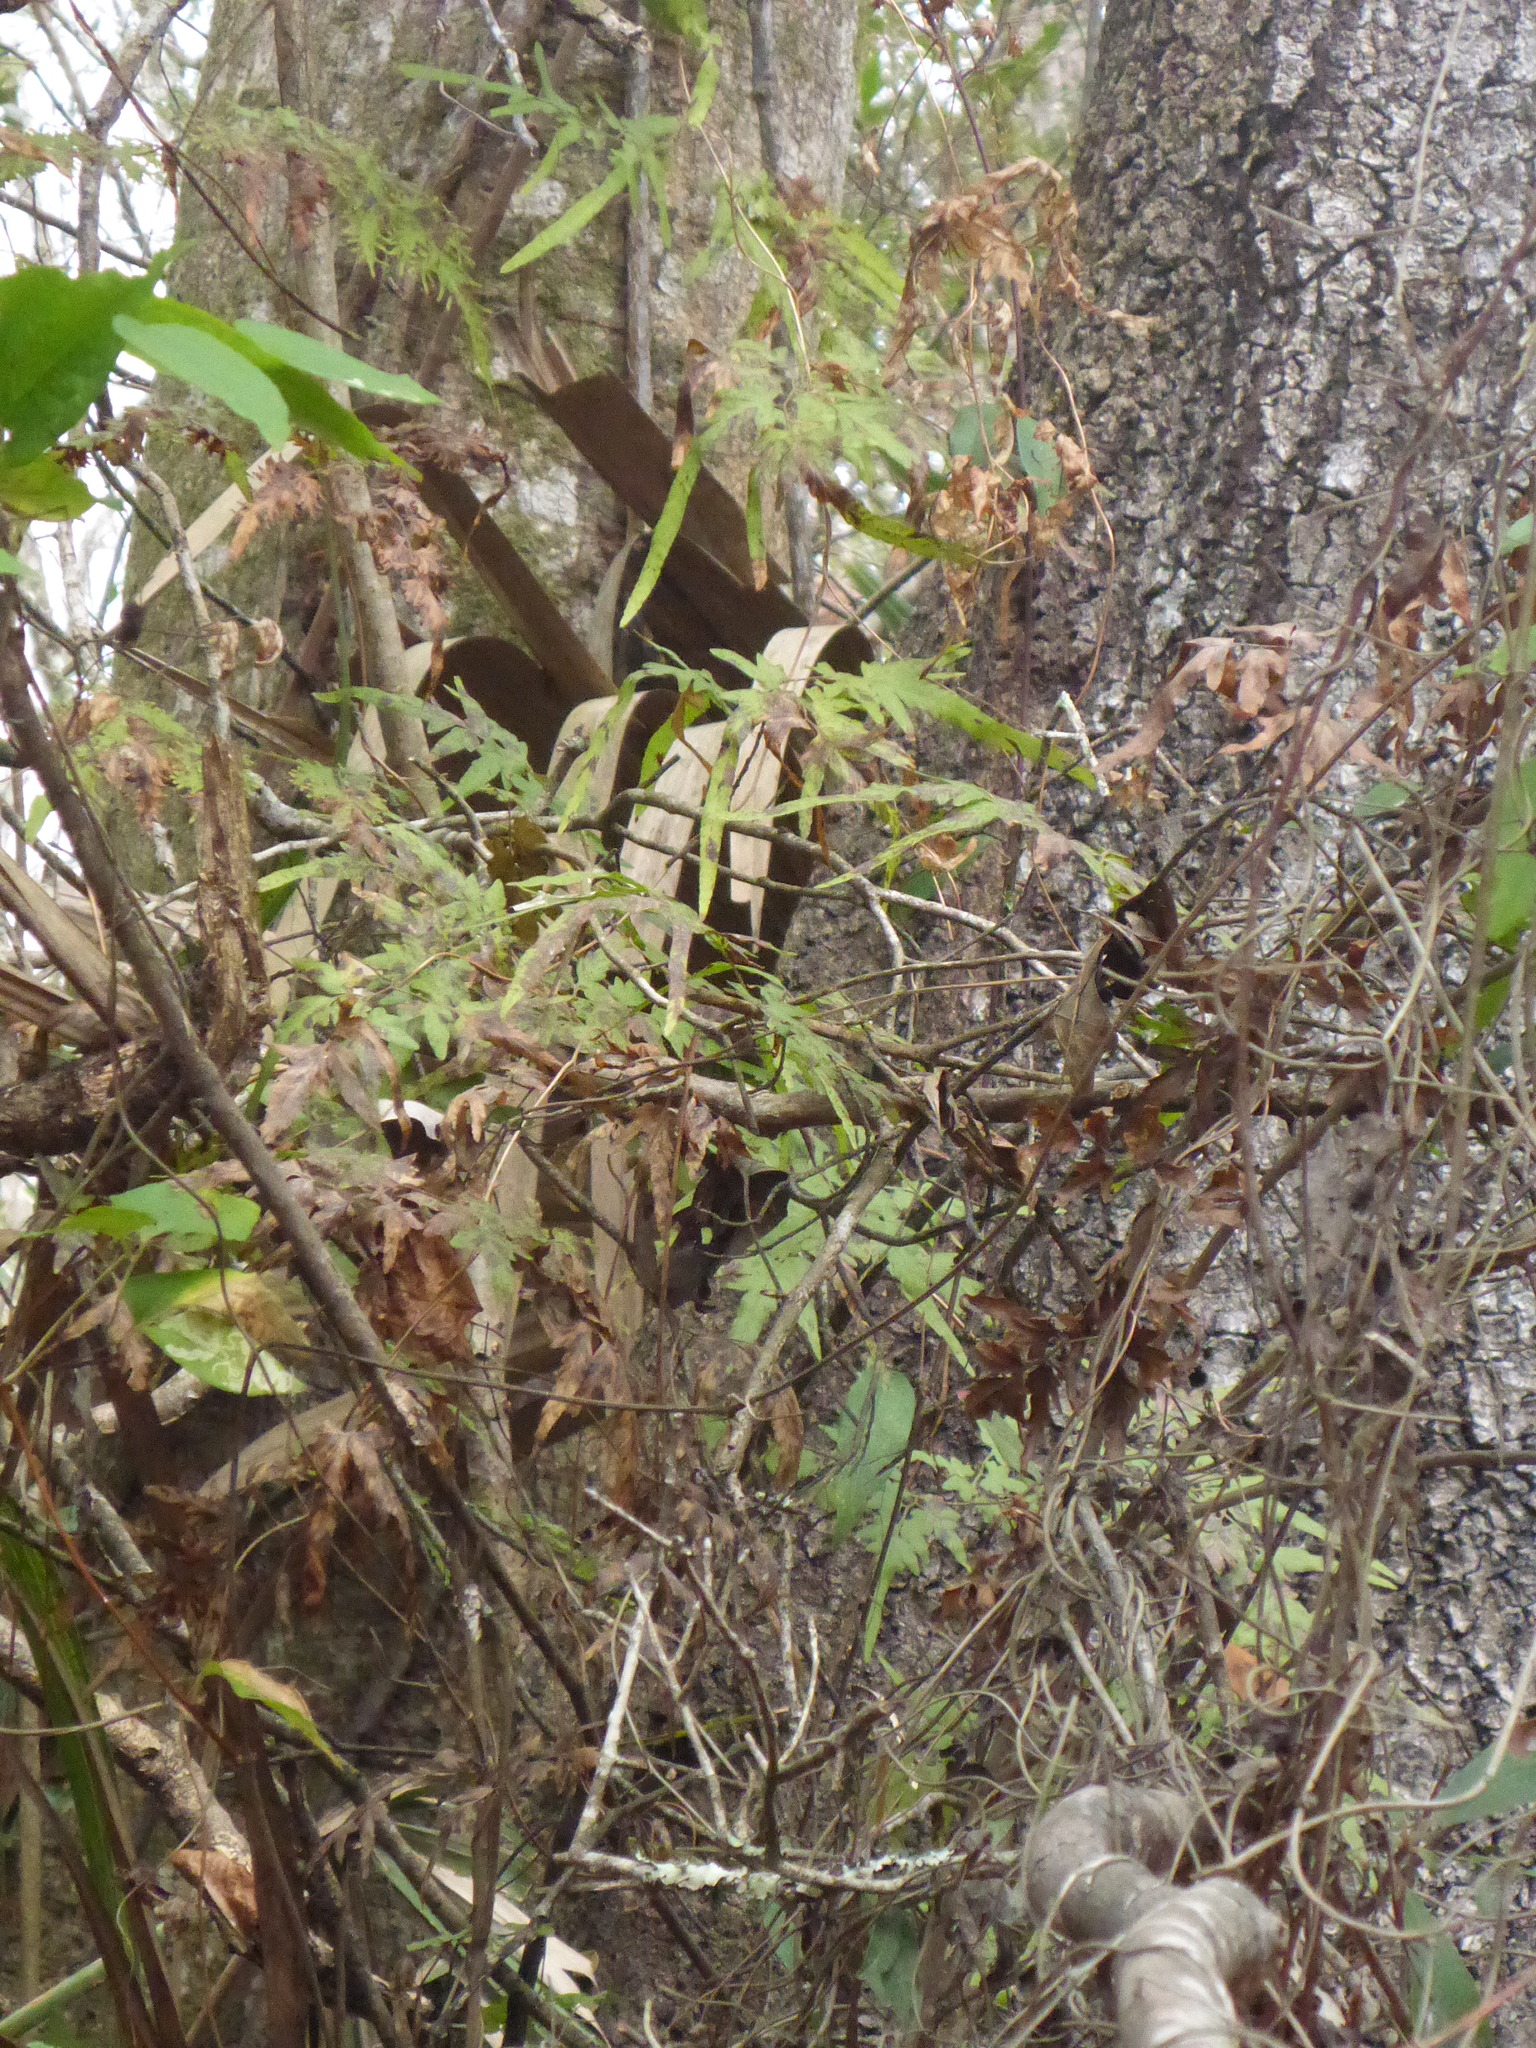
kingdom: Plantae
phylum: Tracheophyta
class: Polypodiopsida
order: Schizaeales
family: Lygodiaceae
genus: Lygodium
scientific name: Lygodium japonicum
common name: Japanese climbing fern
